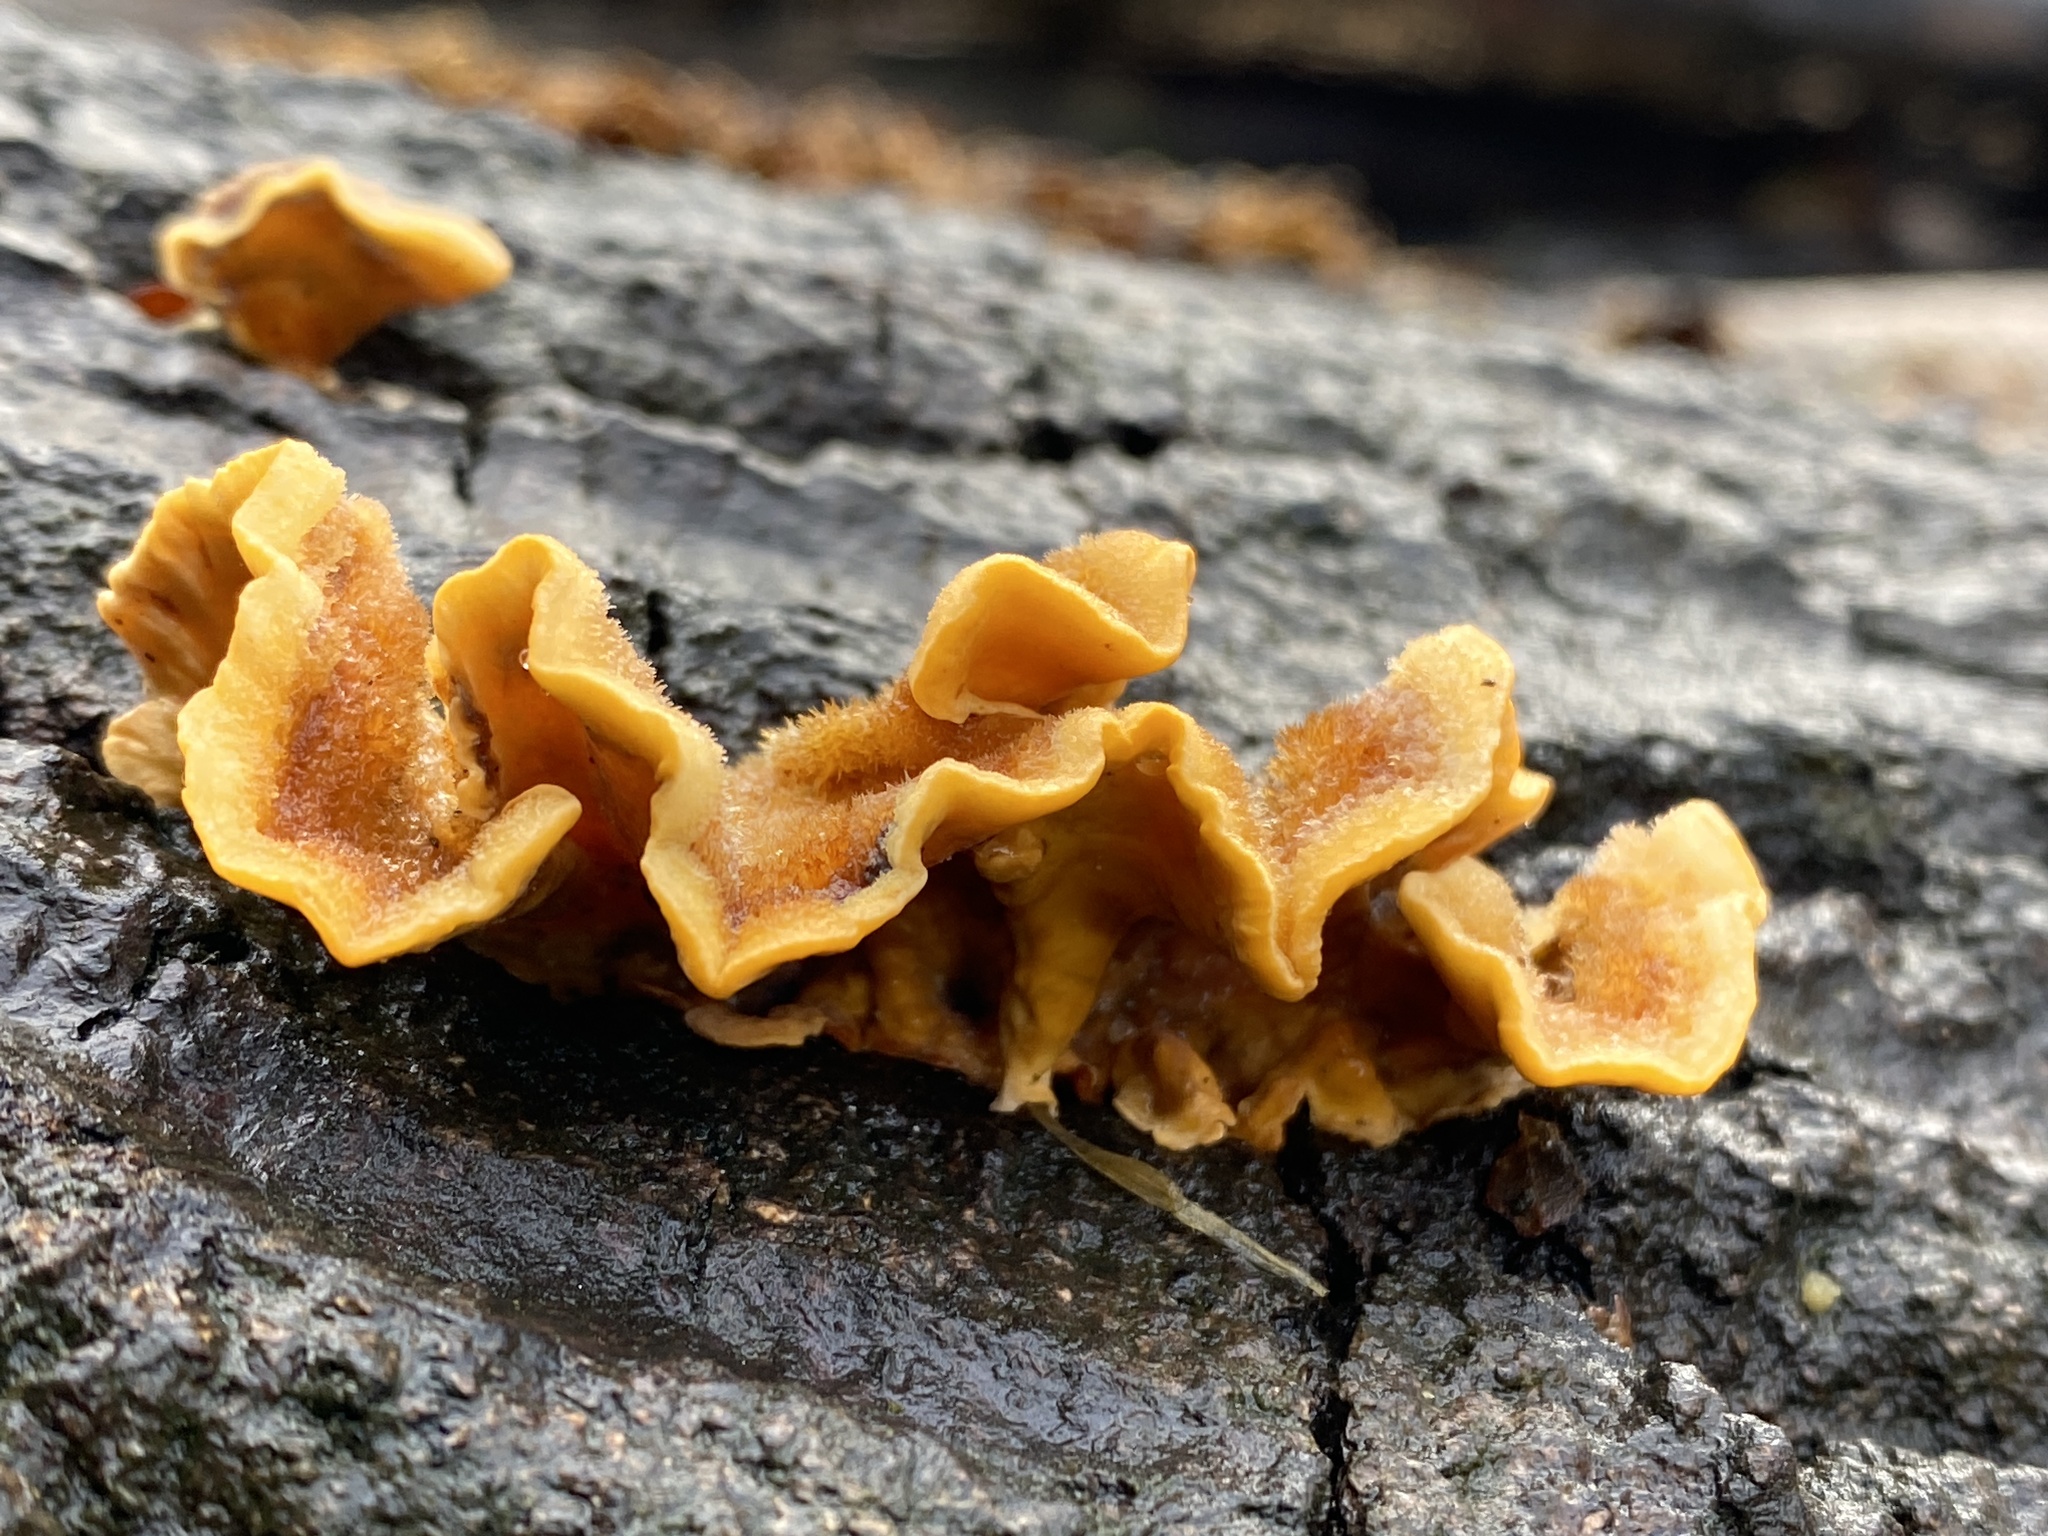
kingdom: Fungi
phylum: Basidiomycota
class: Agaricomycetes
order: Russulales
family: Stereaceae
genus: Stereum
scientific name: Stereum hirsutum
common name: Hairy curtain crust
